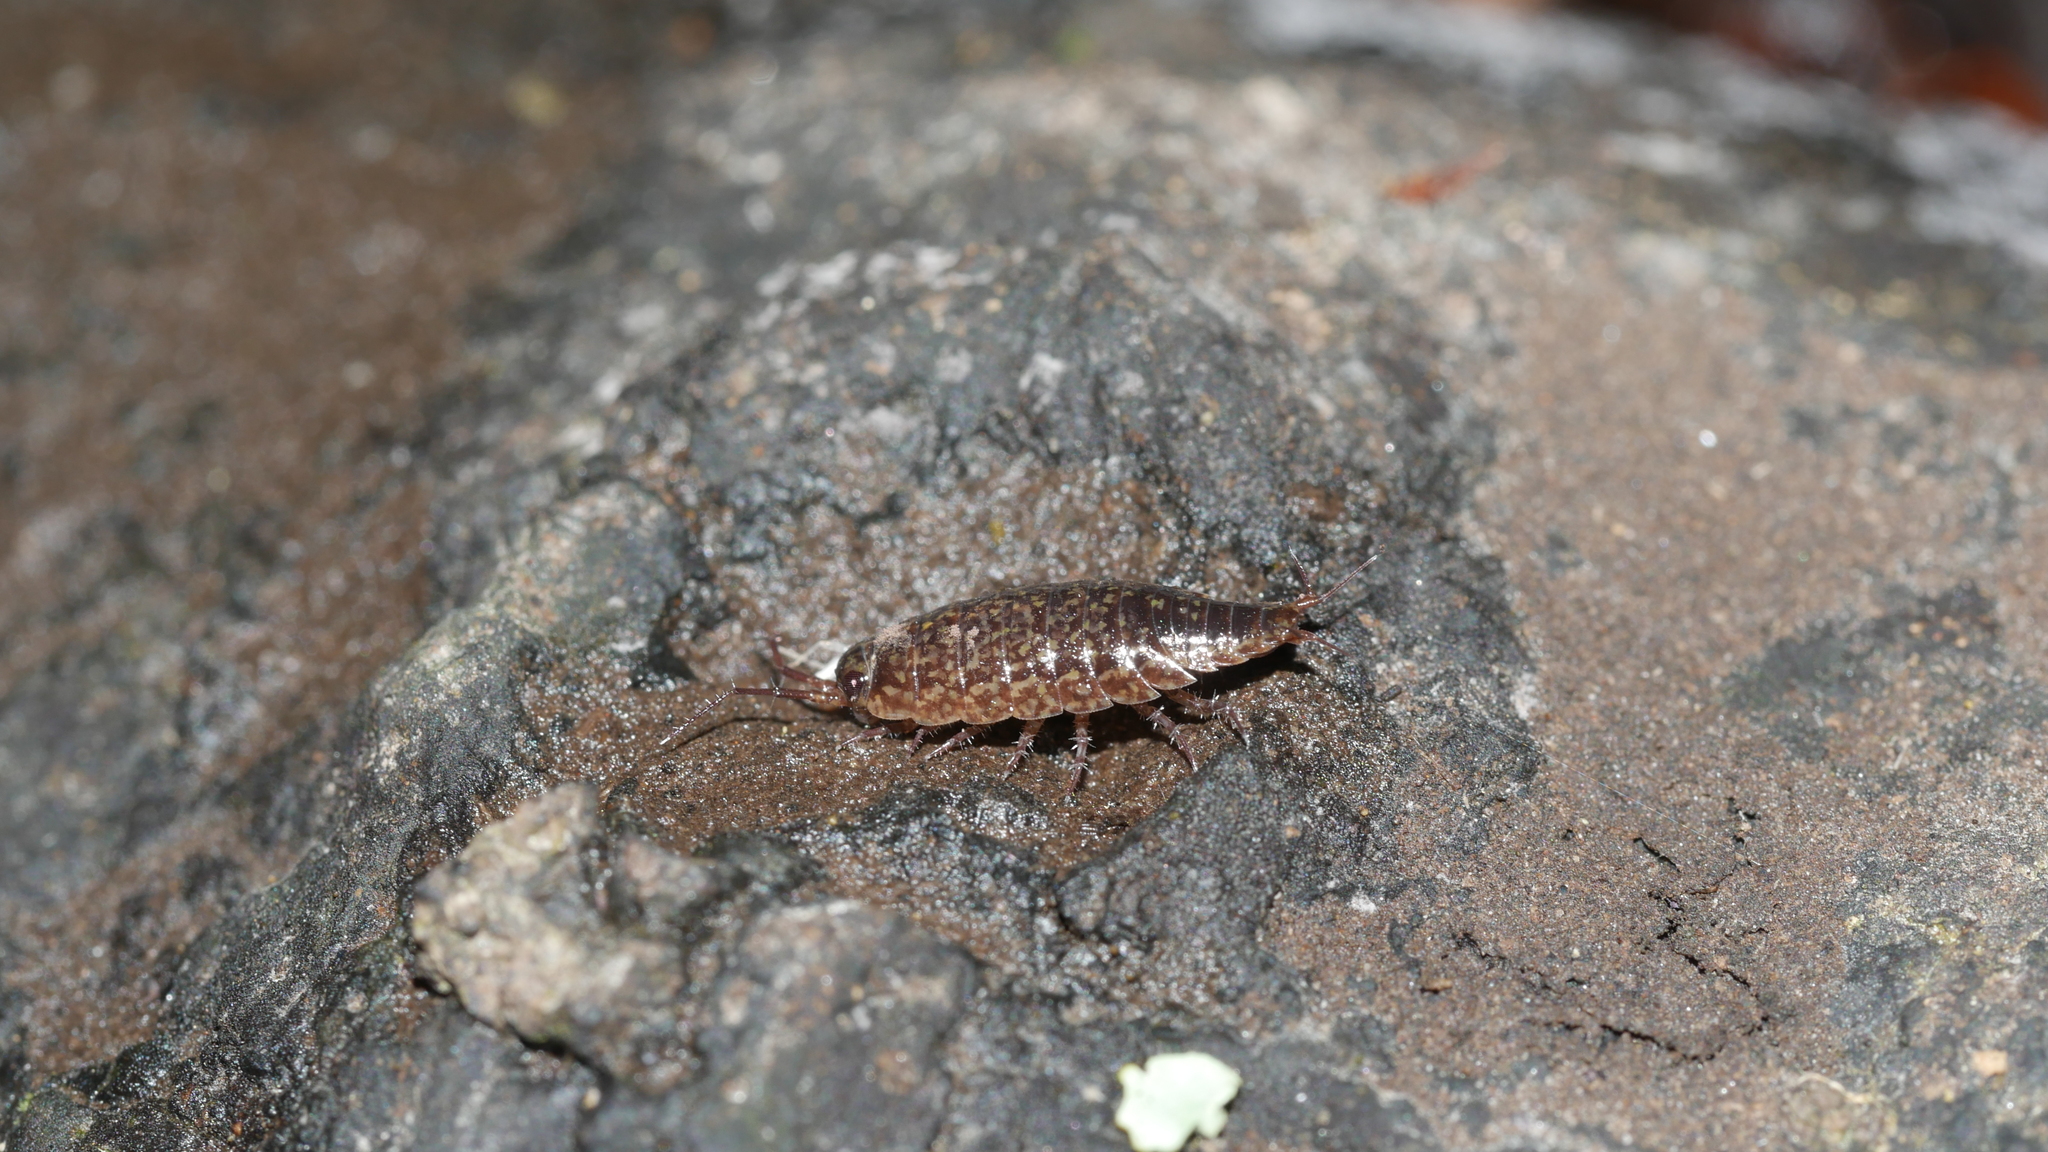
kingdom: Animalia
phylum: Arthropoda
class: Malacostraca
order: Isopoda
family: Ligiidae
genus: Ligidium
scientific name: Ligidium elrodii
